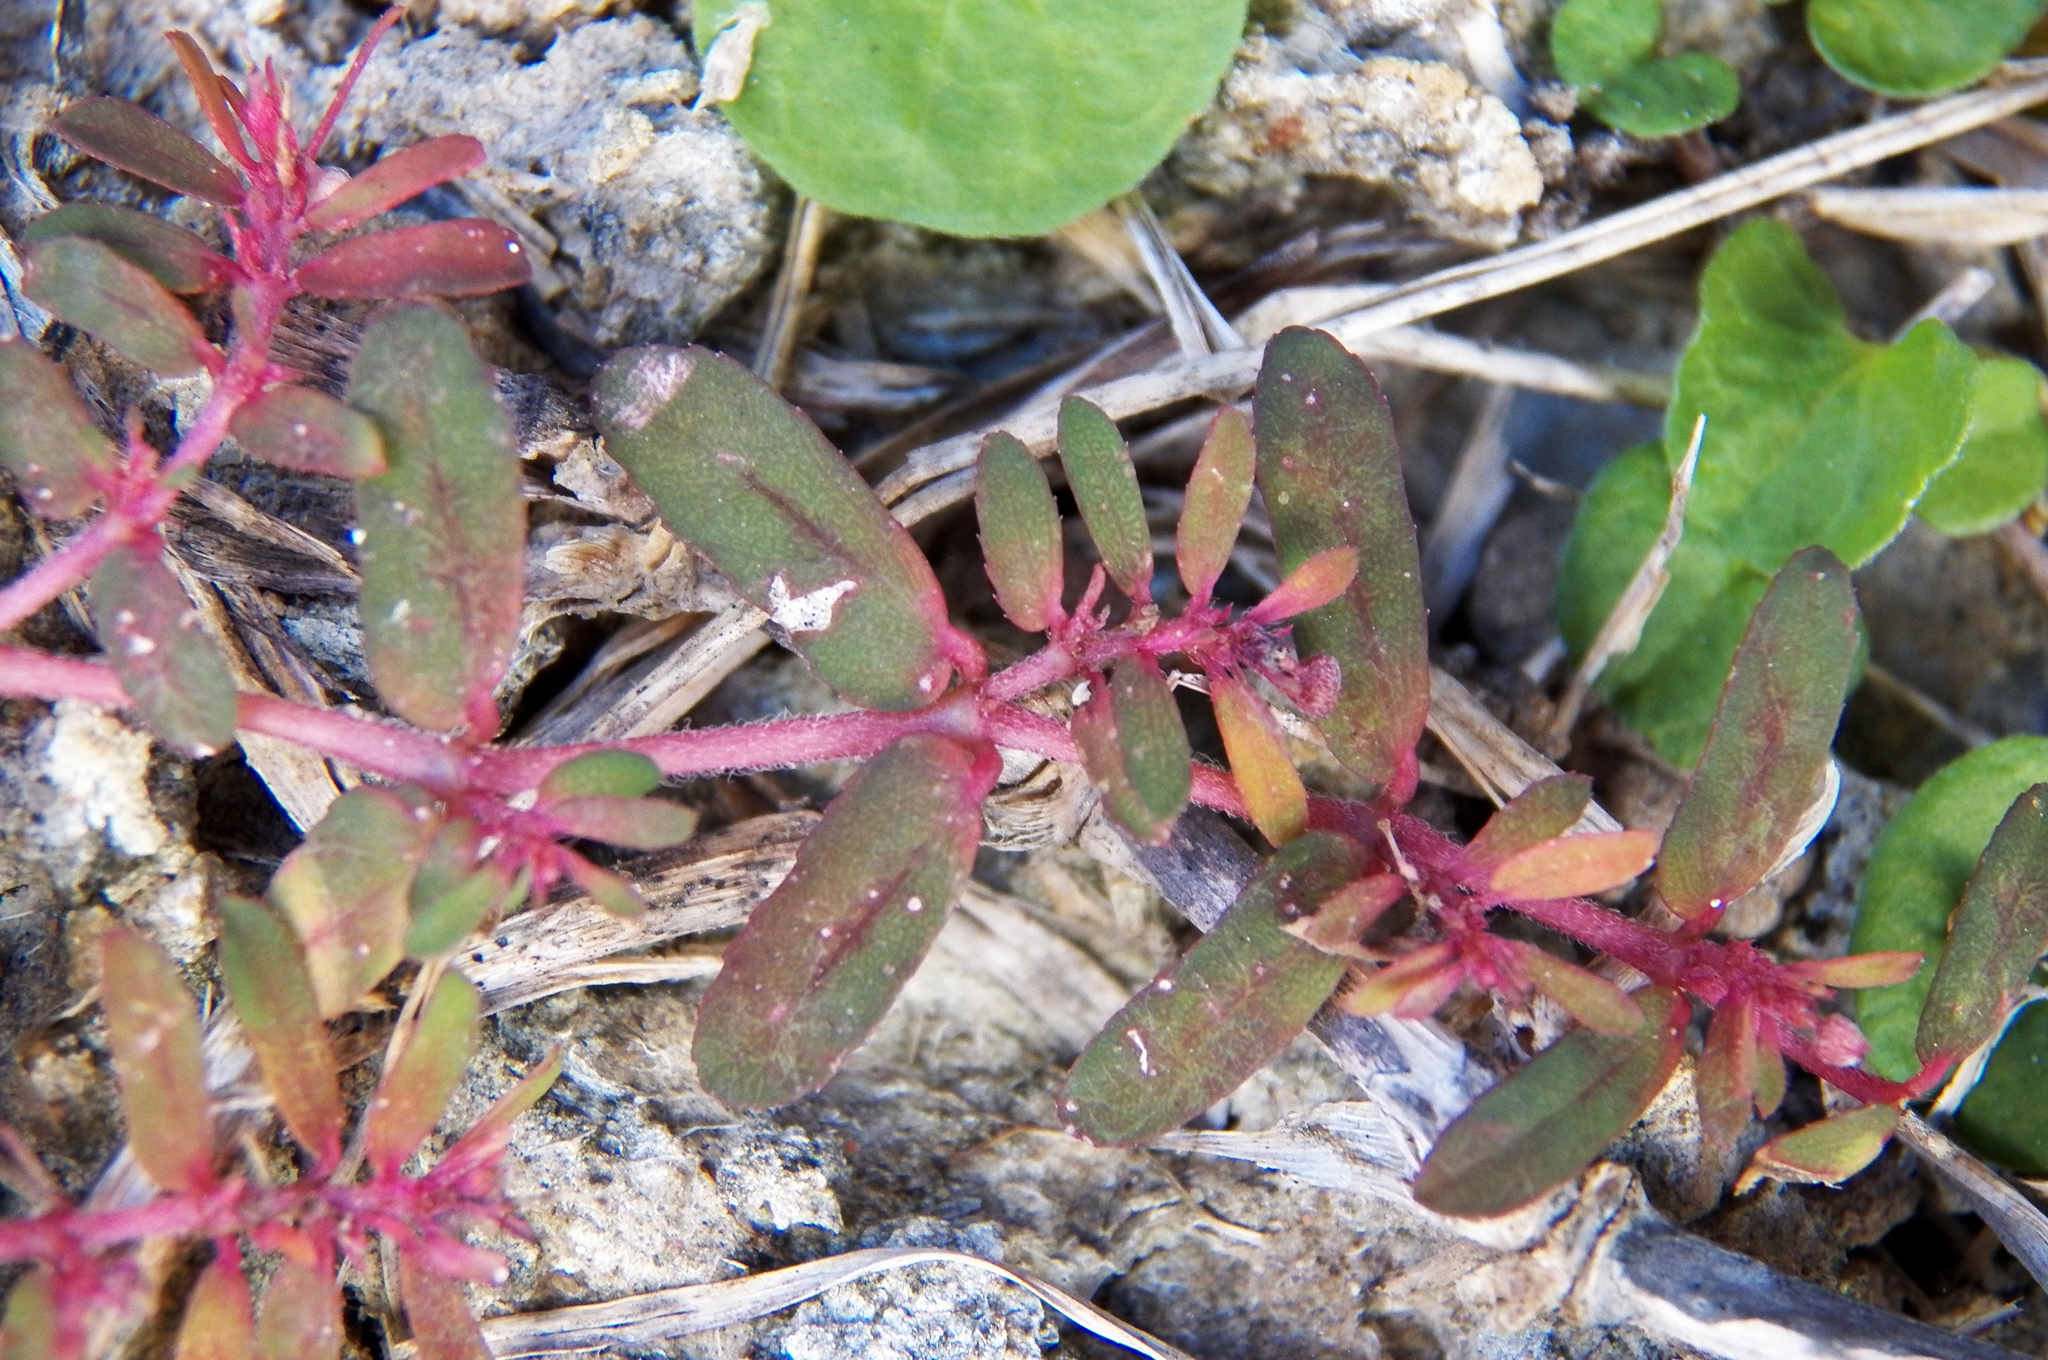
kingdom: Plantae
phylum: Tracheophyta
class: Magnoliopsida
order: Malpighiales
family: Euphorbiaceae
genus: Euphorbia
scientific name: Euphorbia maculata
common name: Spotted spurge
